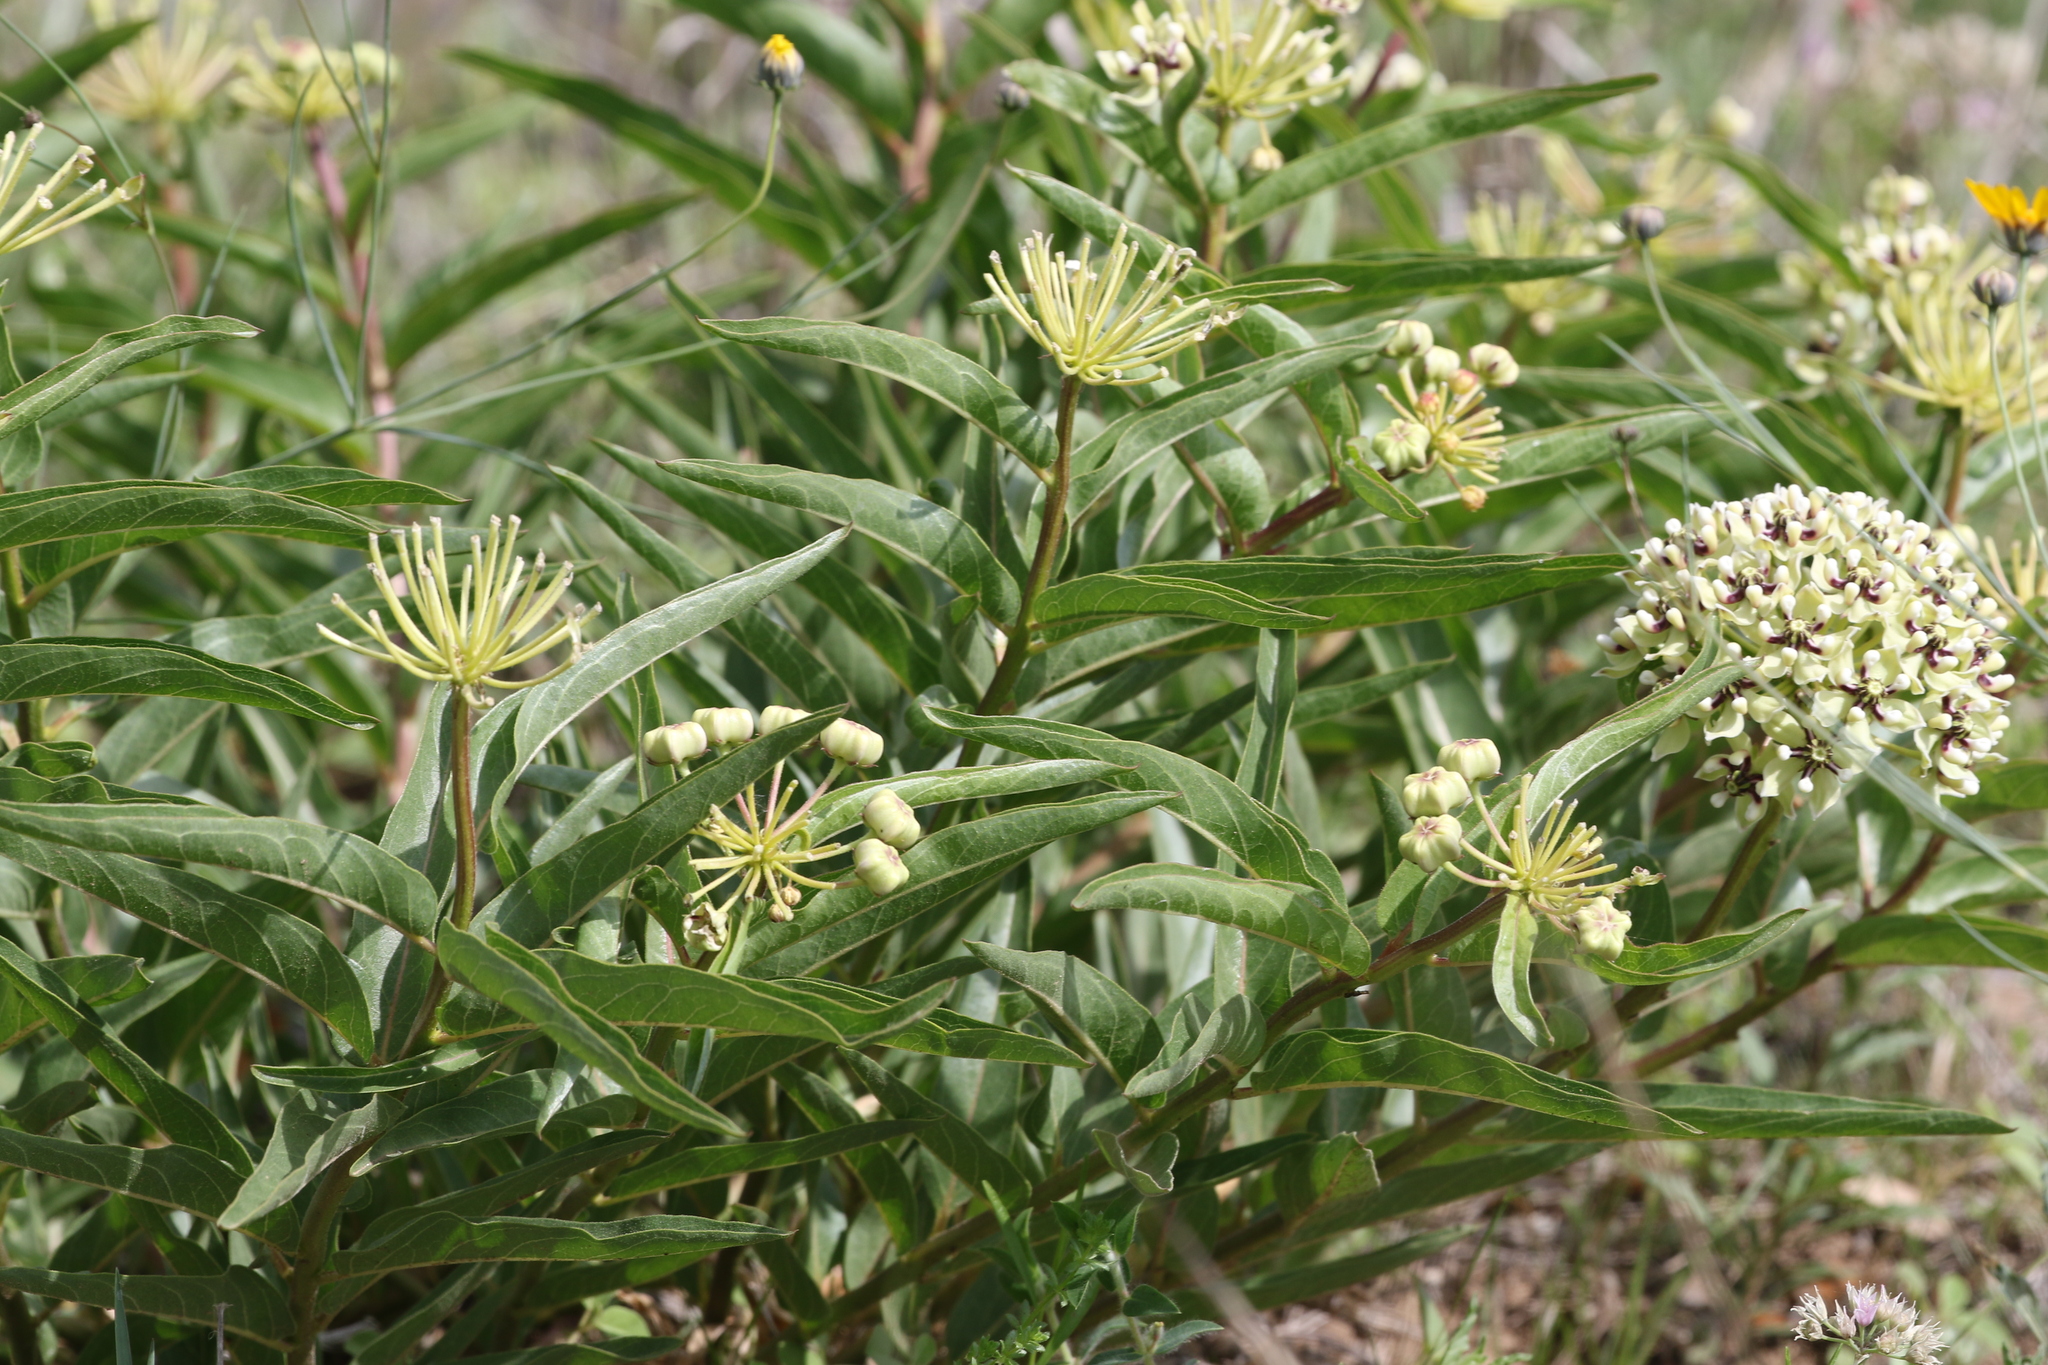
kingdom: Plantae
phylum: Tracheophyta
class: Magnoliopsida
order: Gentianales
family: Apocynaceae
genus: Asclepias
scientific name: Asclepias asperula
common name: Antelope horns
